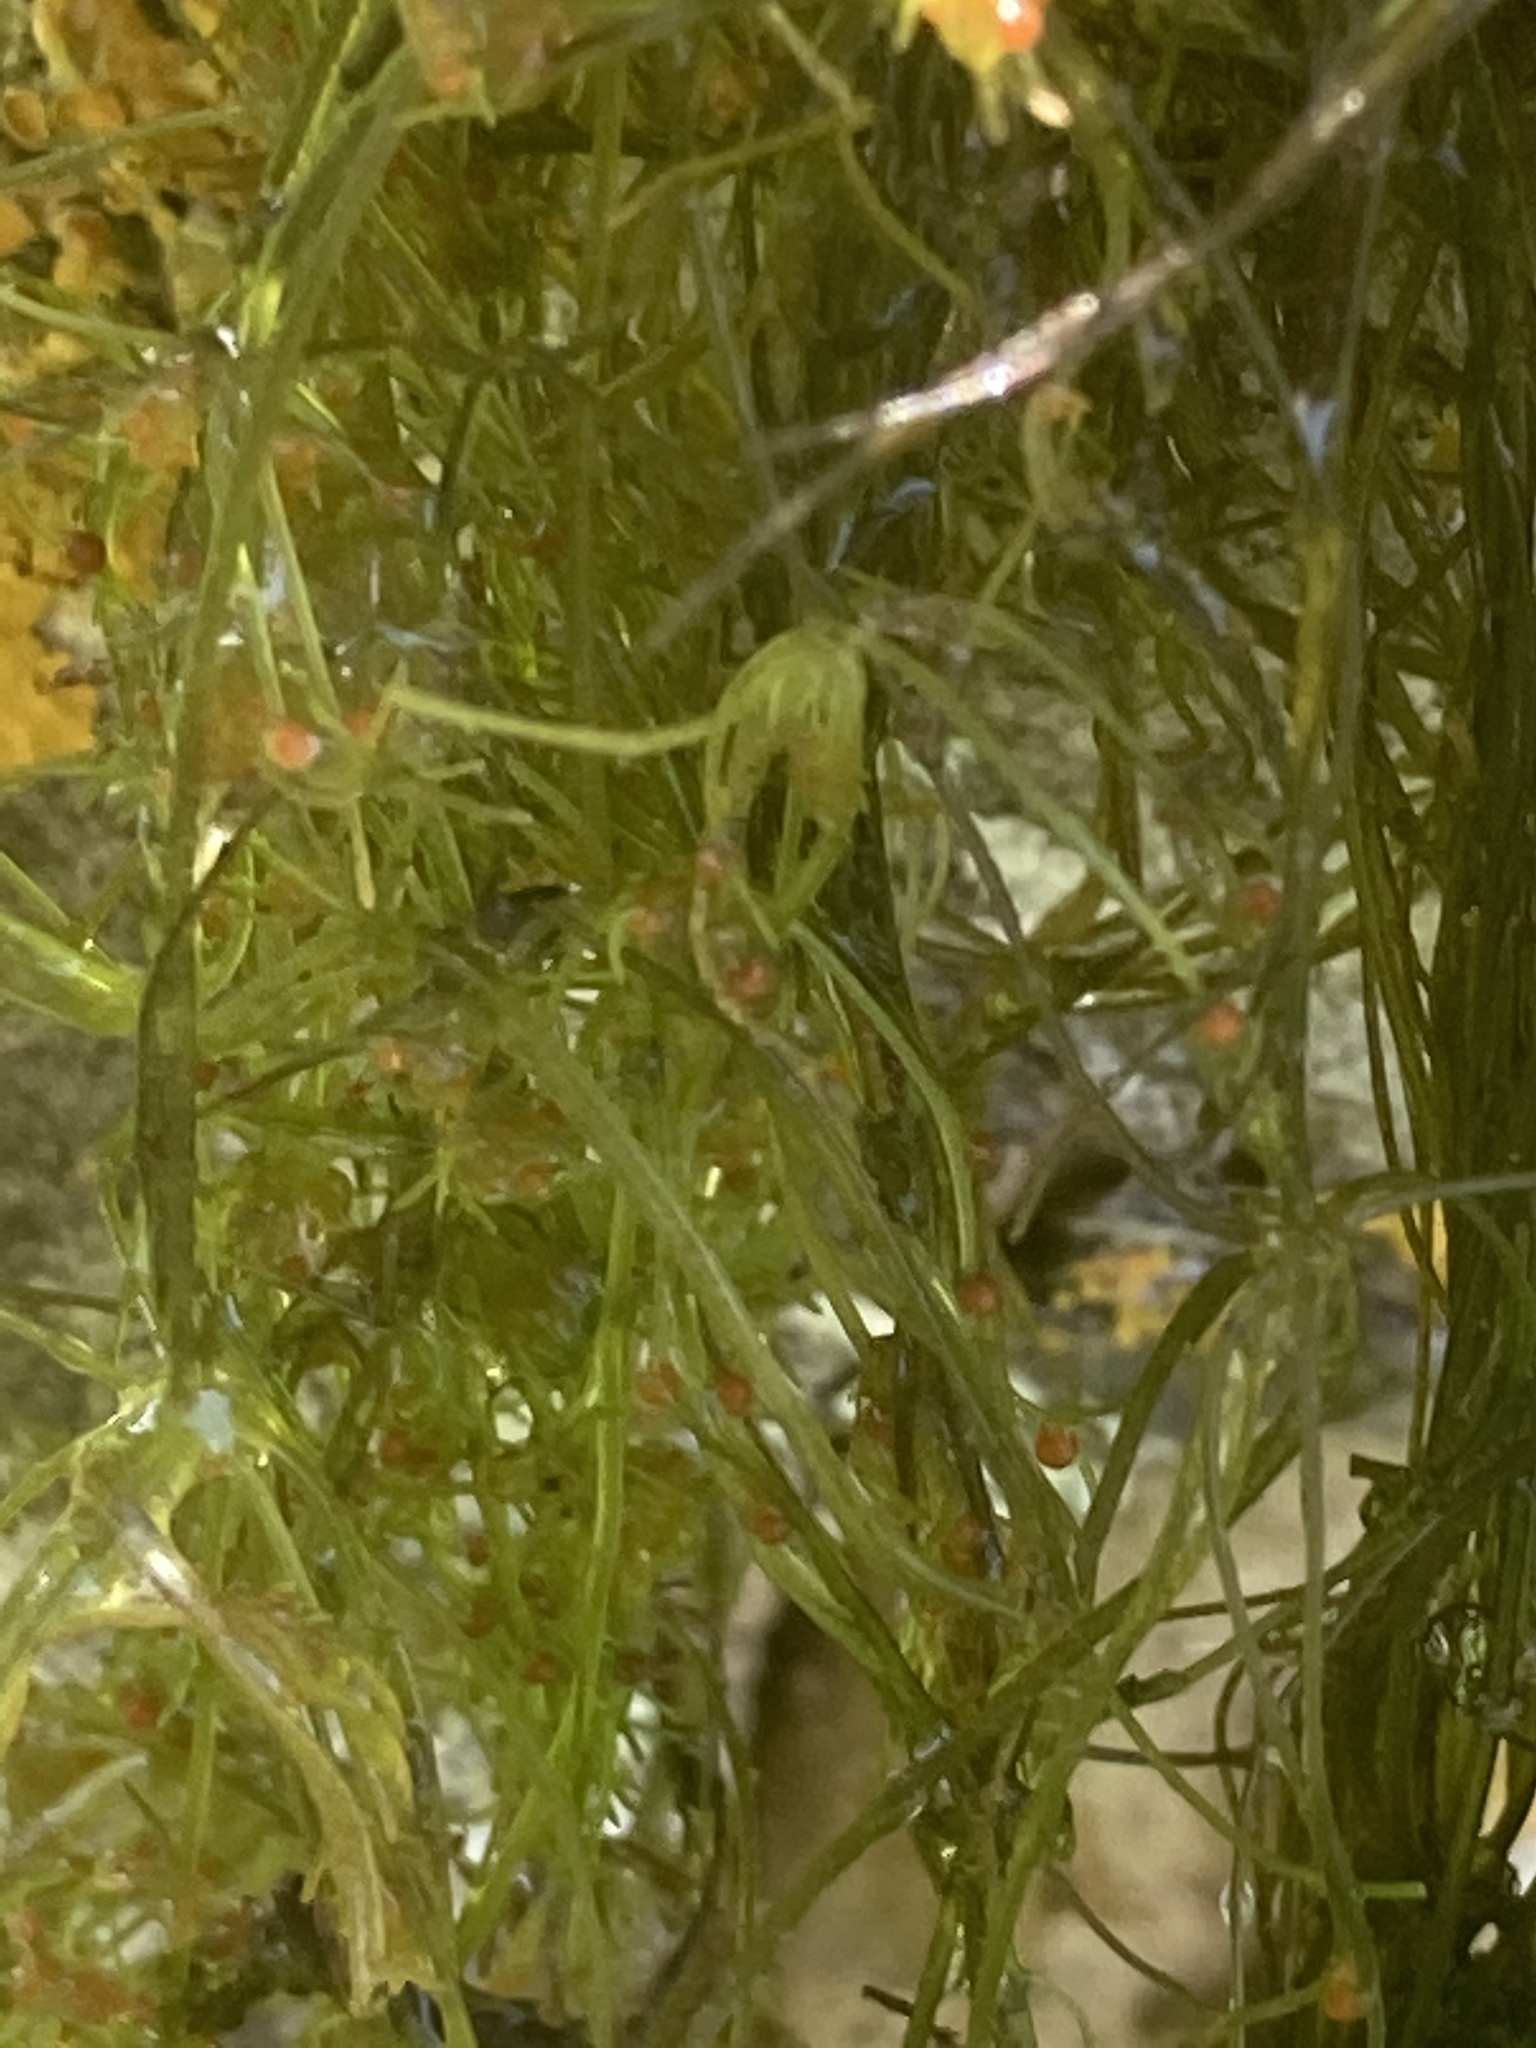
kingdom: Plantae
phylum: Charophyta
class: Charophyceae
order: Charales
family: Characeae
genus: Nitella
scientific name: Nitella opaca
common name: Dark stonewort
